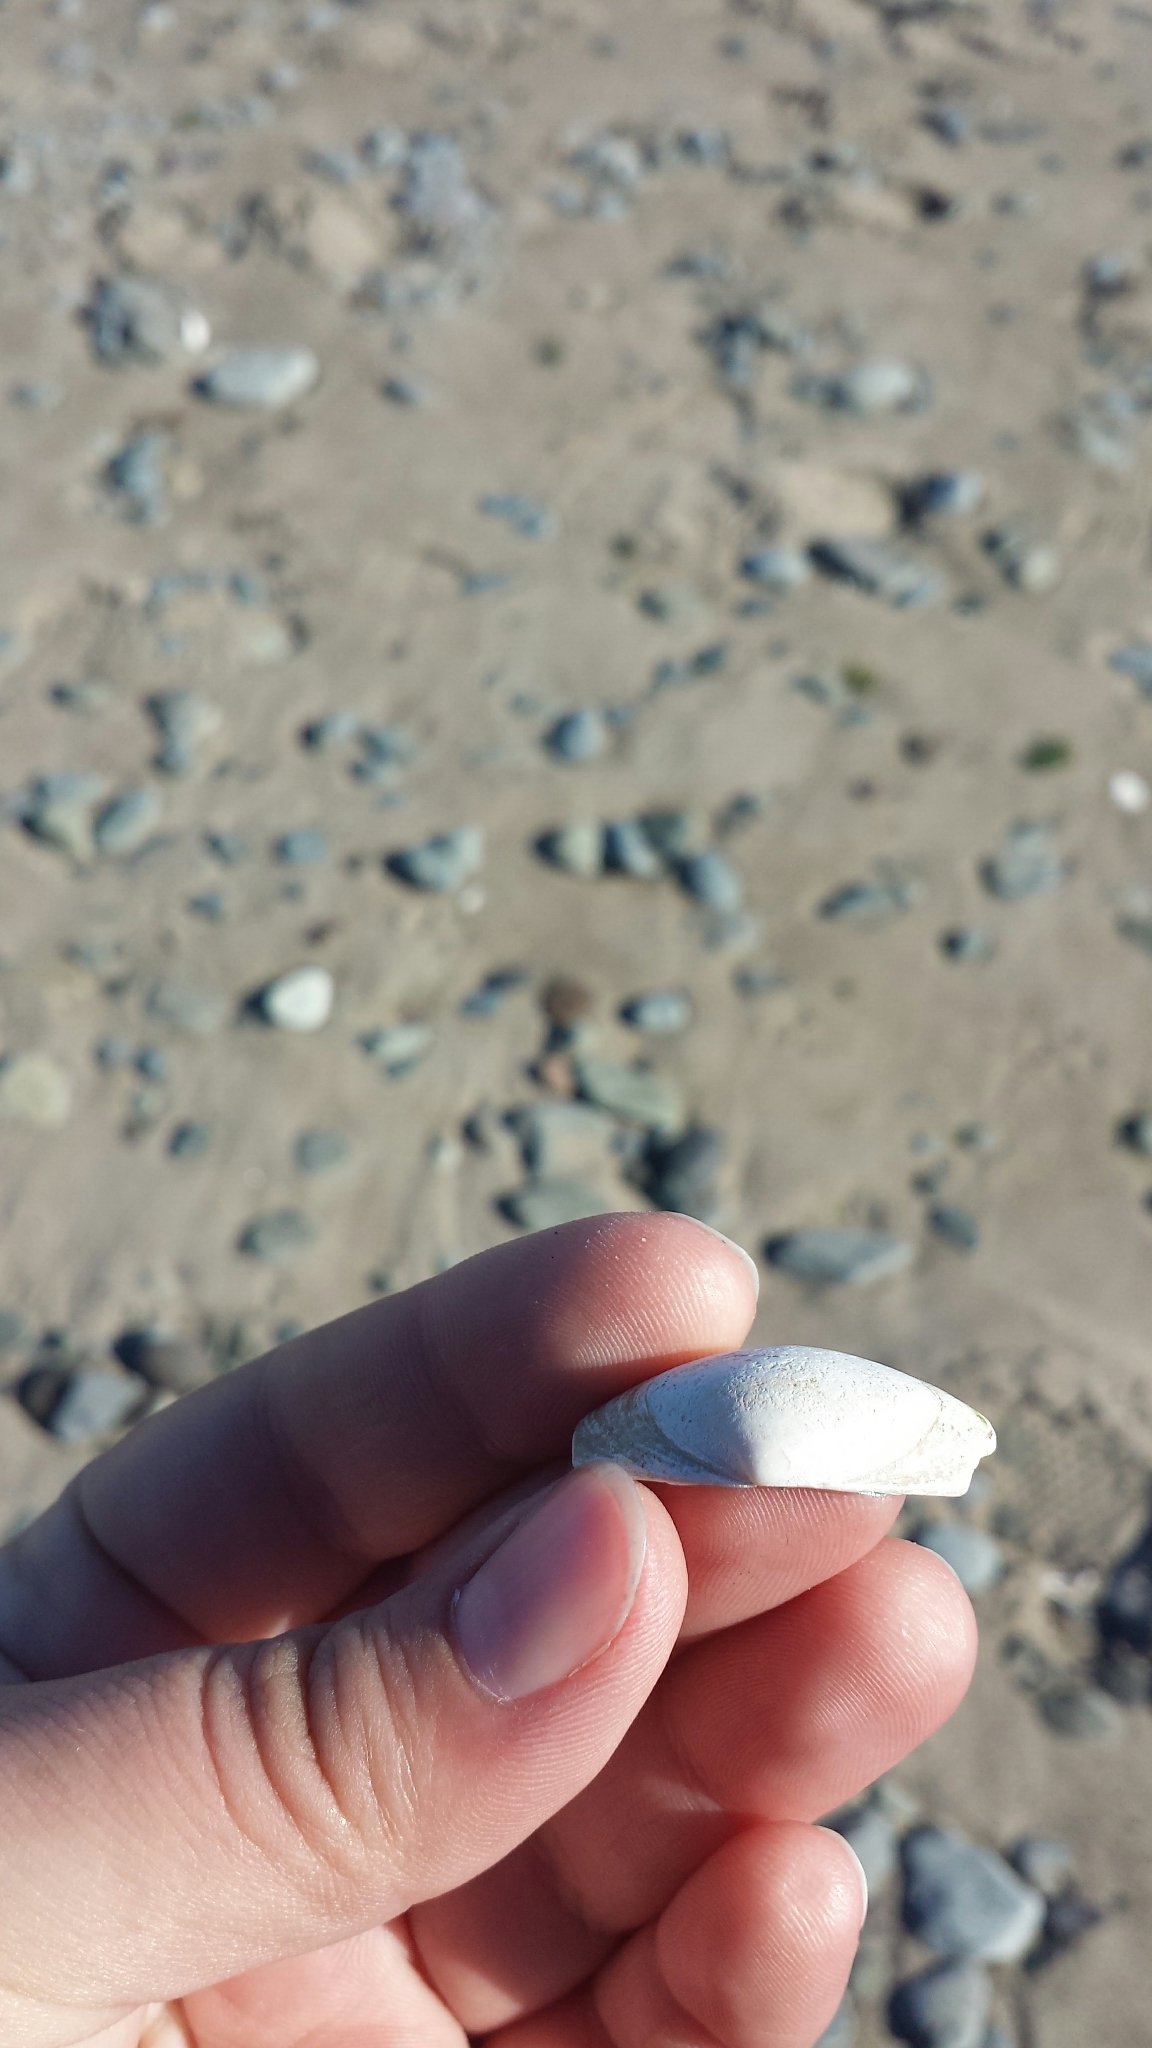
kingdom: Animalia
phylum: Mollusca
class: Bivalvia
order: Venerida
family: Mactridae
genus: Spisula
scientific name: Spisula solidissima
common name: Atlantic surf clam
